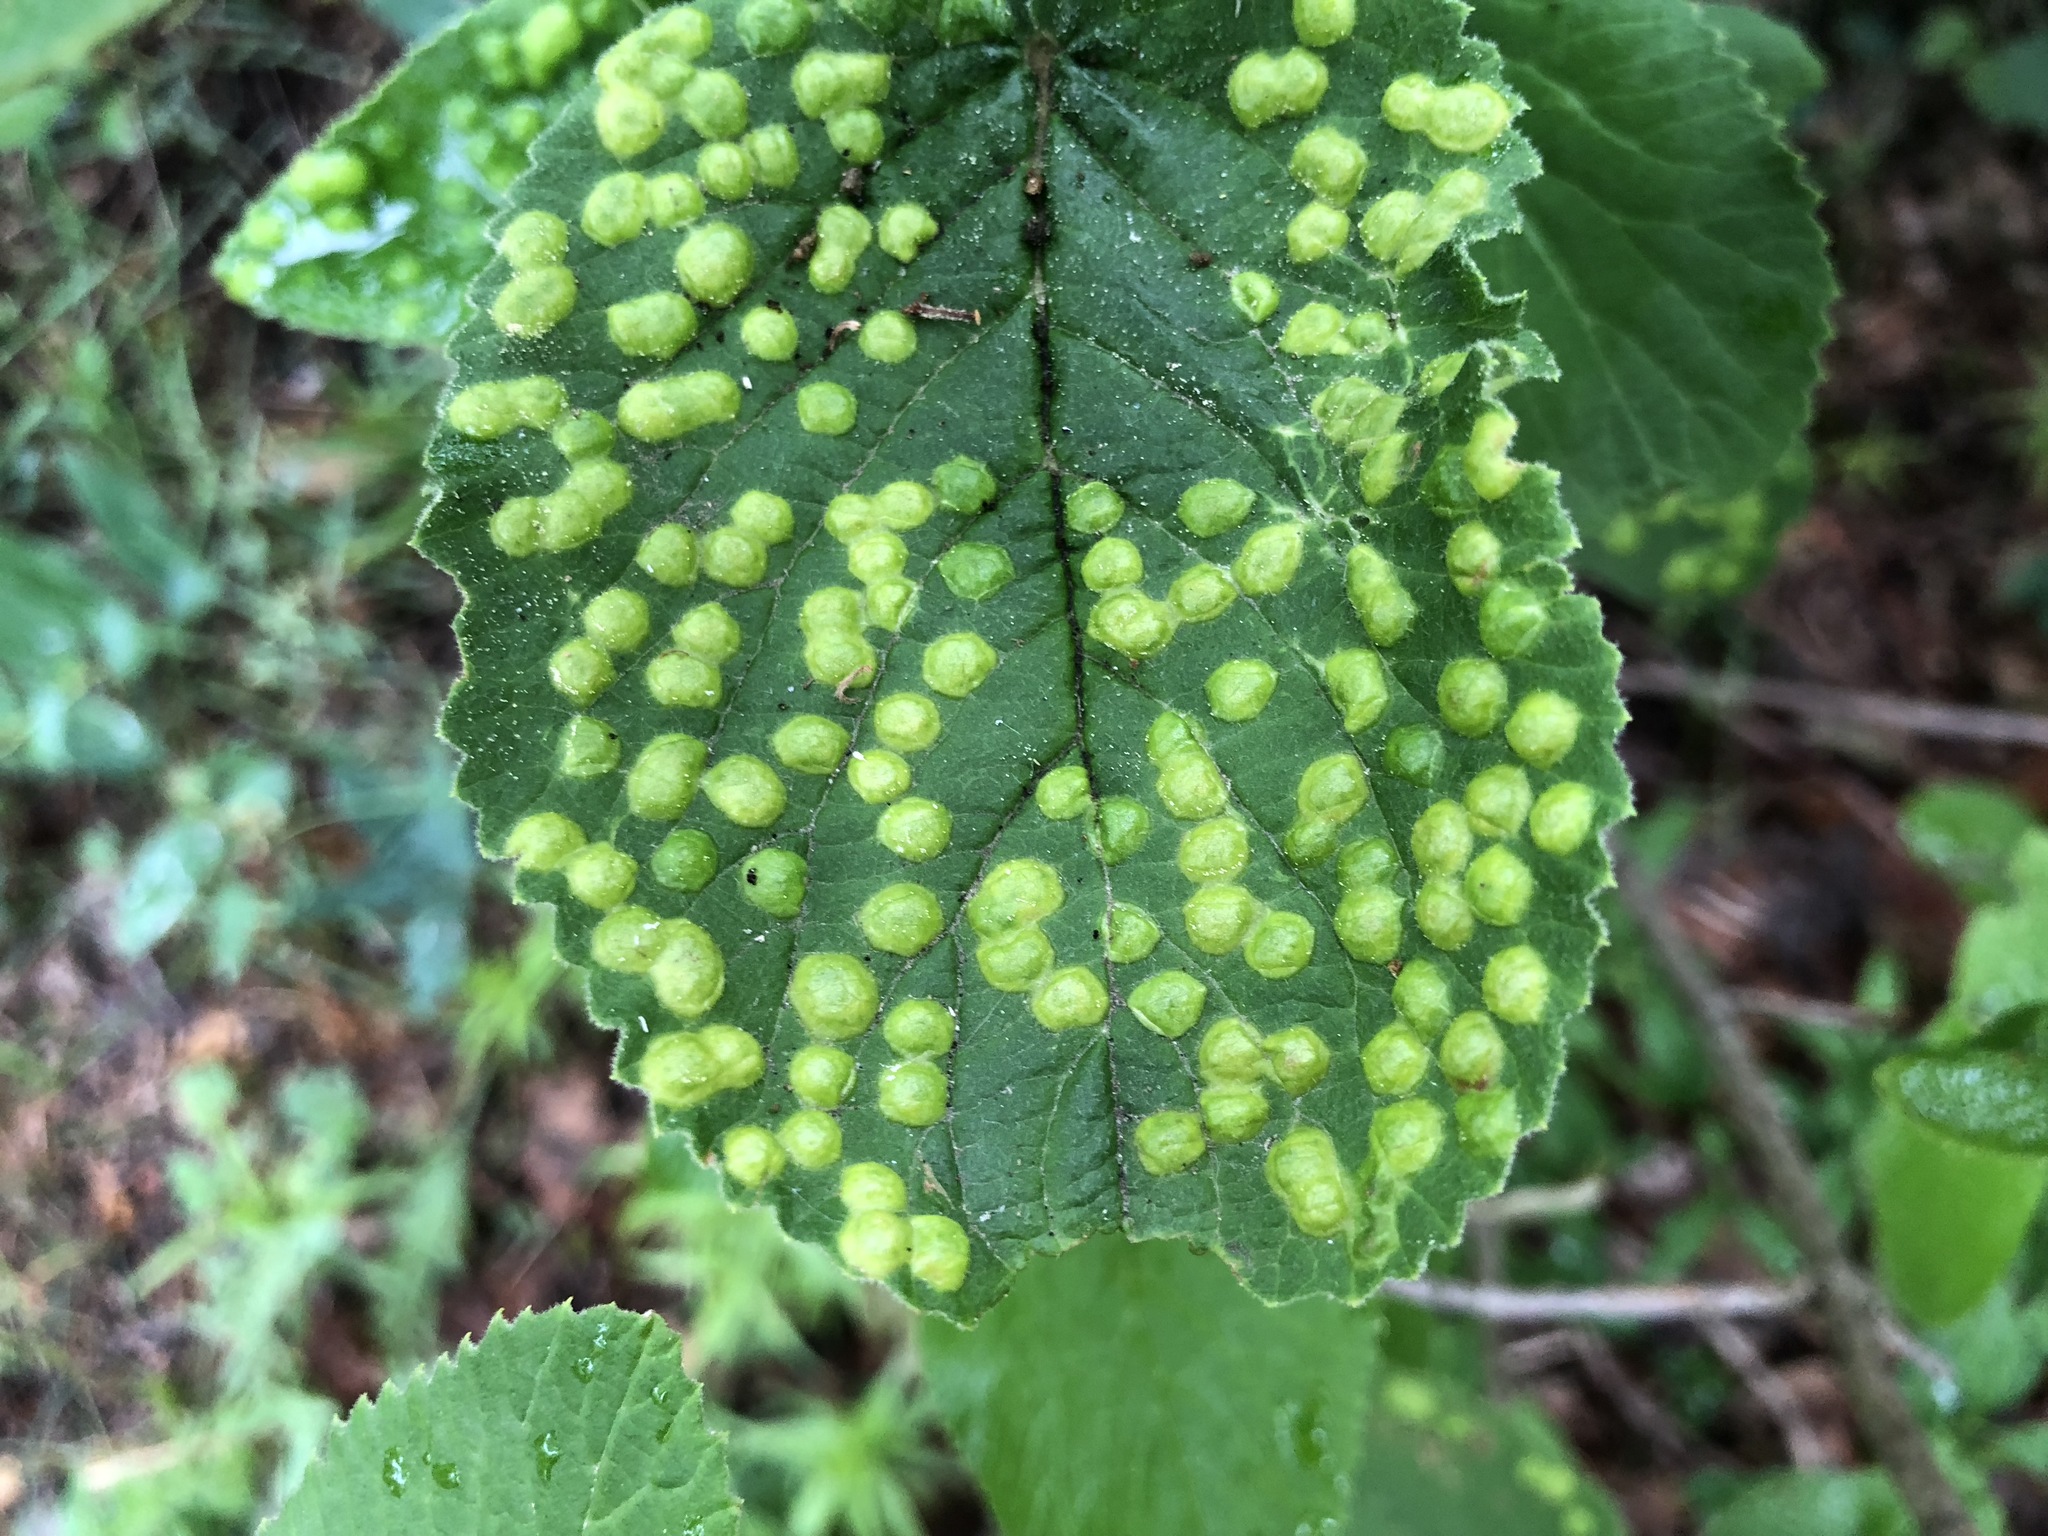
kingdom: Animalia
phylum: Arthropoda
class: Insecta
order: Diptera
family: Cecidomyiidae
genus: Sackenomyia
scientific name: Sackenomyia reaumurii
